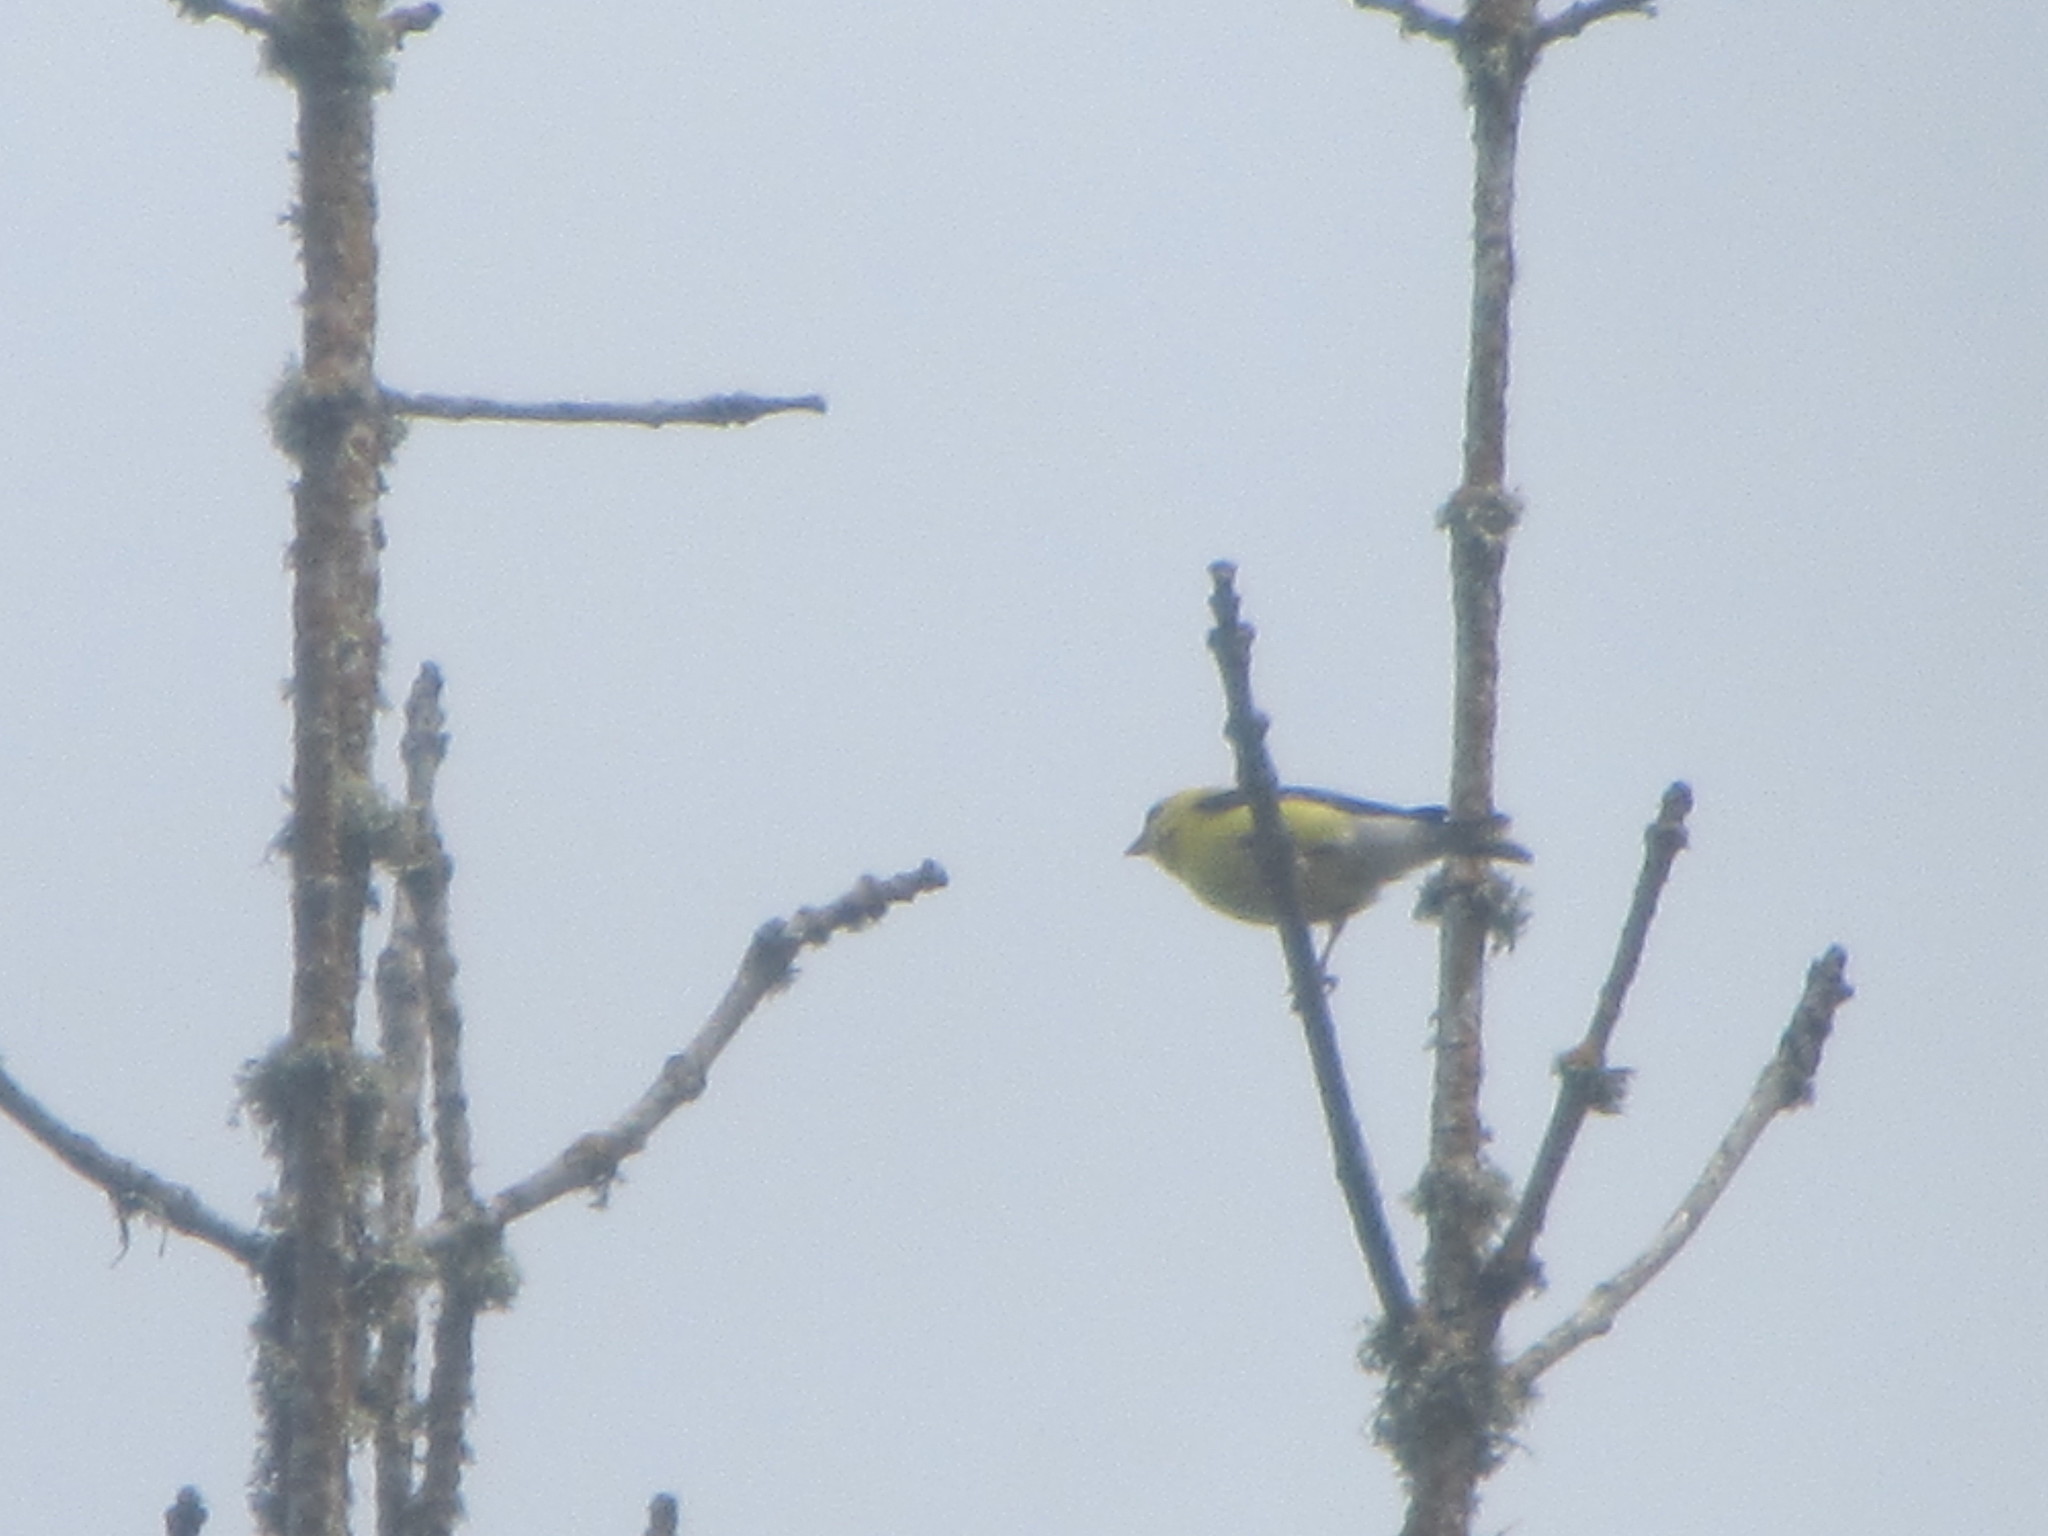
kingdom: Animalia
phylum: Chordata
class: Aves
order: Passeriformes
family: Fringillidae
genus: Spinus
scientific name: Spinus tristis
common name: American goldfinch
